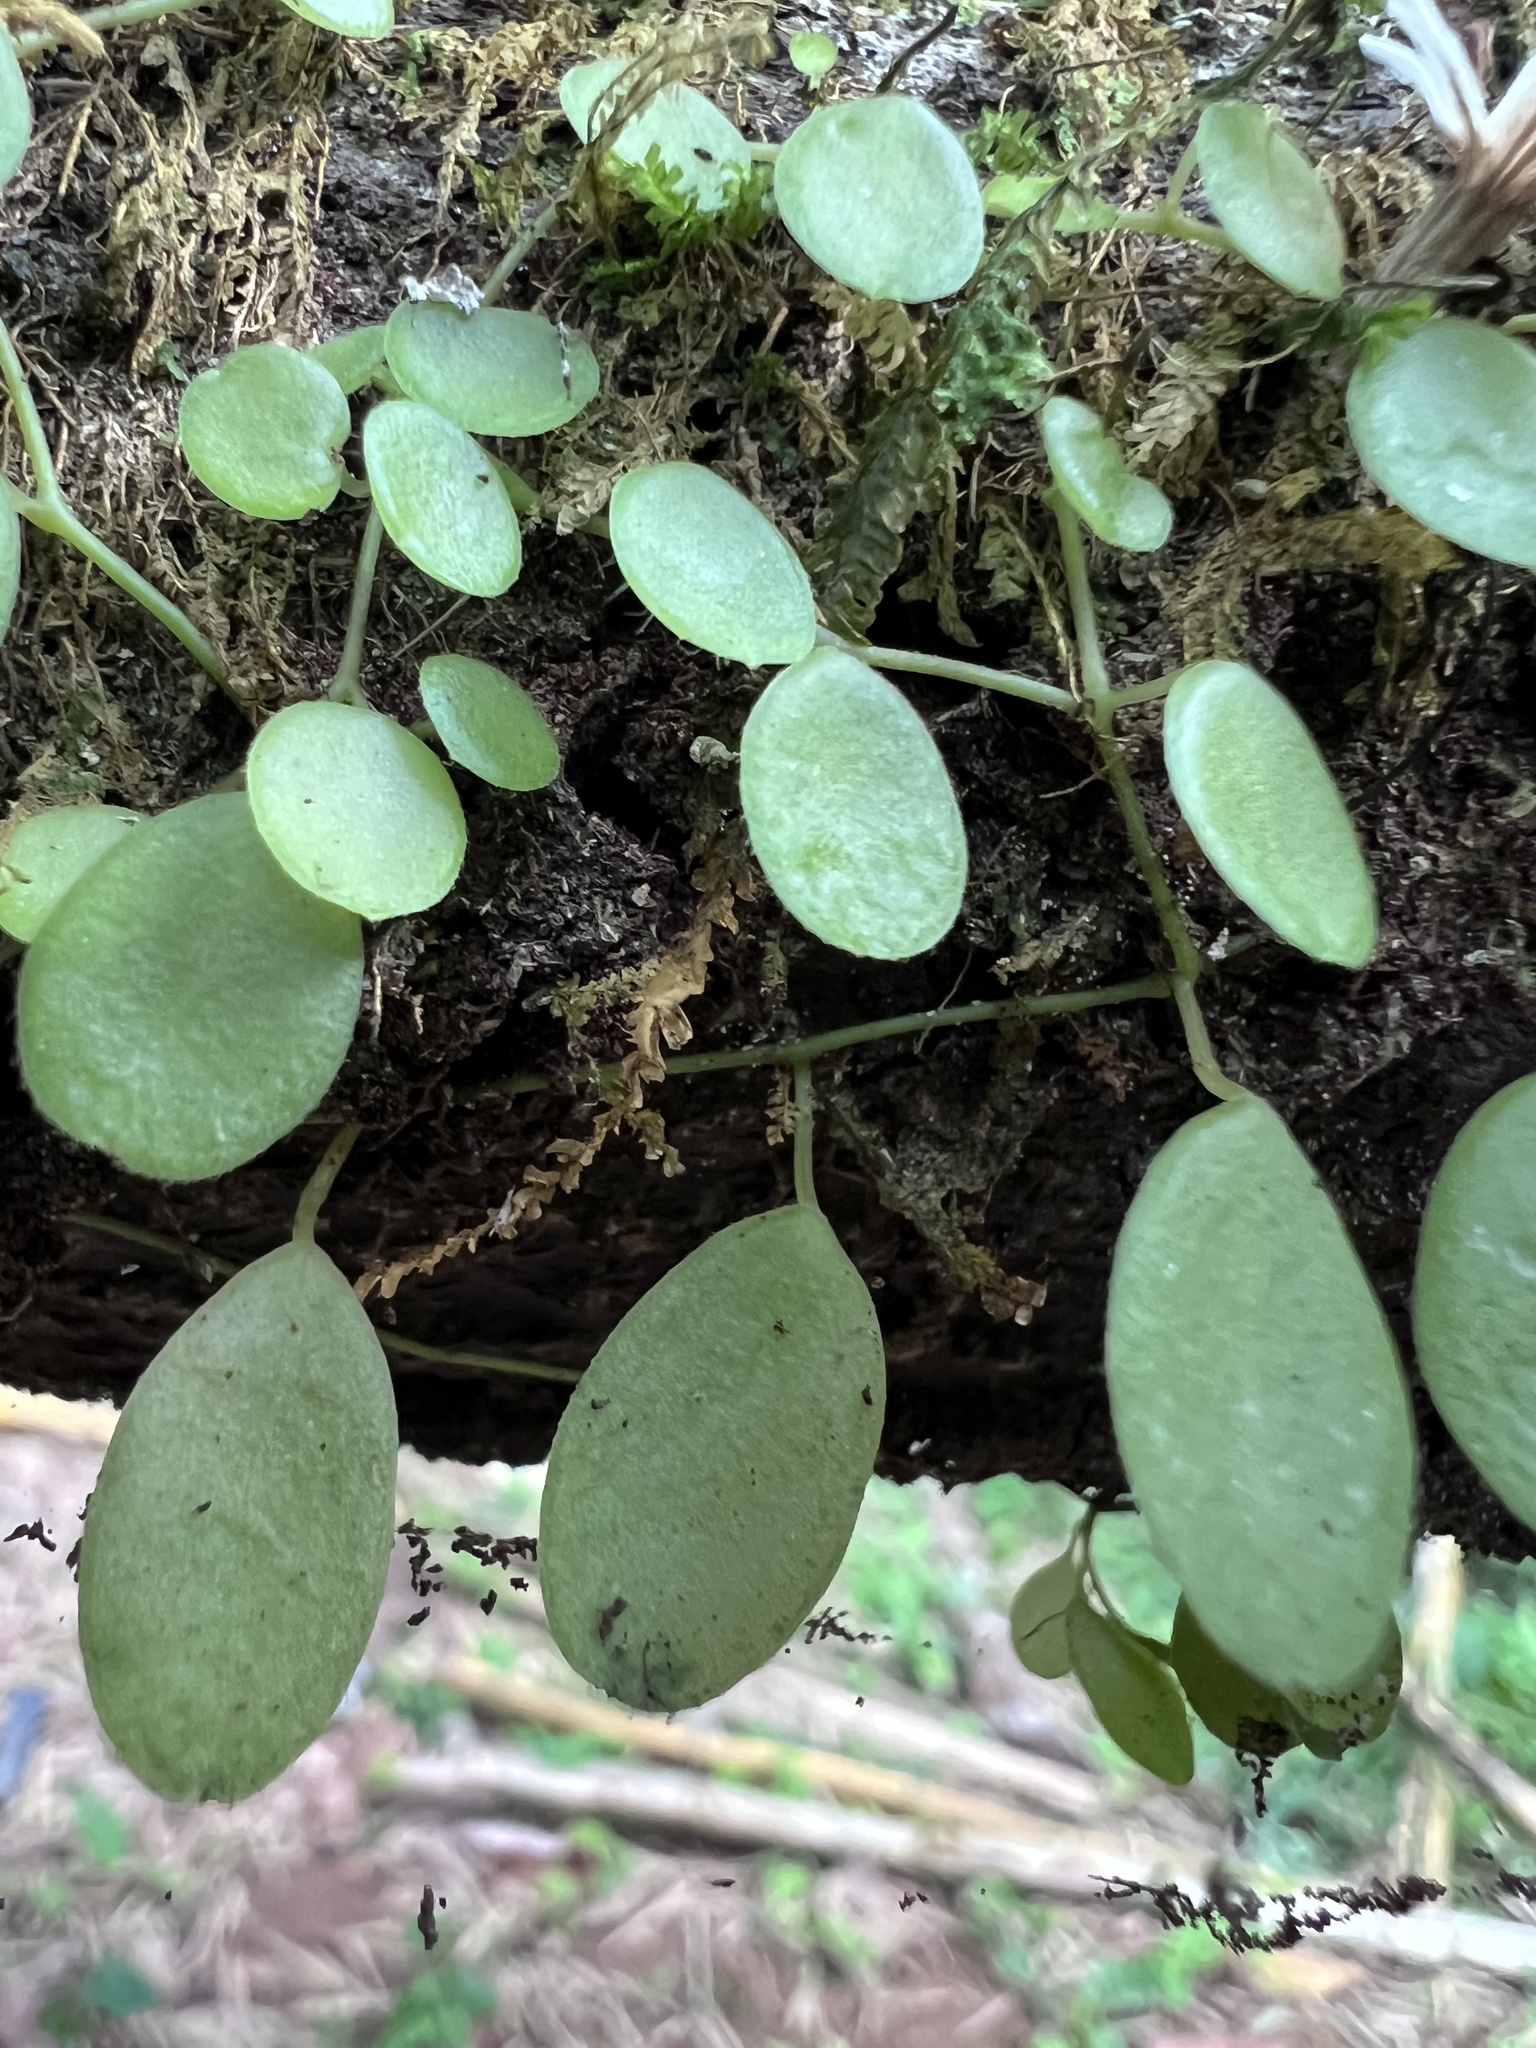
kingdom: Plantae
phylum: Tracheophyta
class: Magnoliopsida
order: Piperales
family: Piperaceae
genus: Peperomia
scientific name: Peperomia rotundifolia
